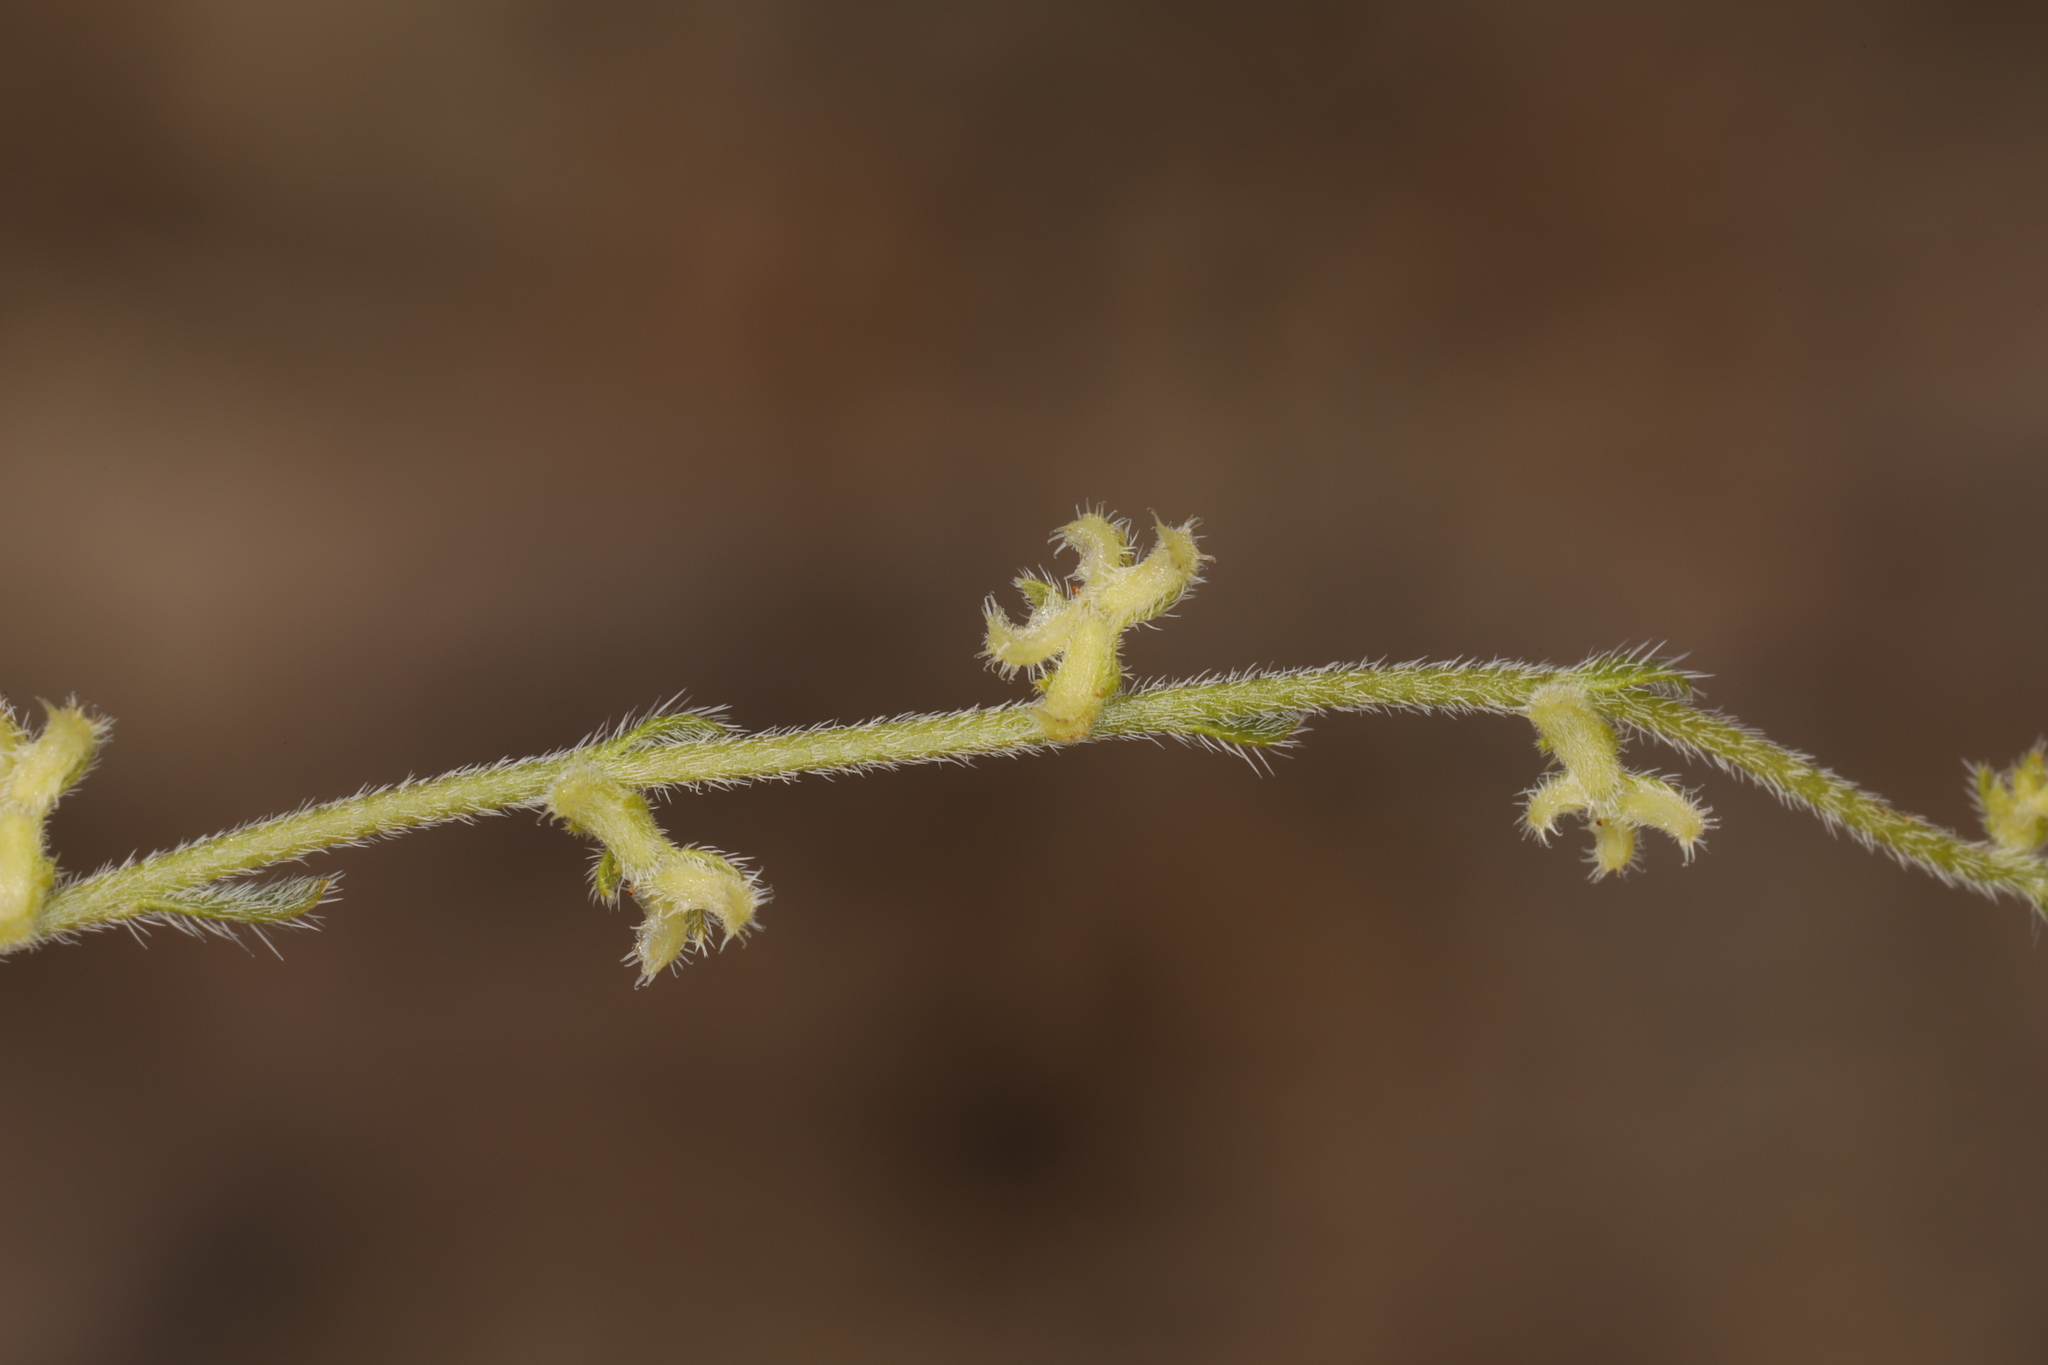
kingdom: Plantae
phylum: Tracheophyta
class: Magnoliopsida
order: Boraginales
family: Boraginaceae
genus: Pectocarya
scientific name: Pectocarya heterocarpa
